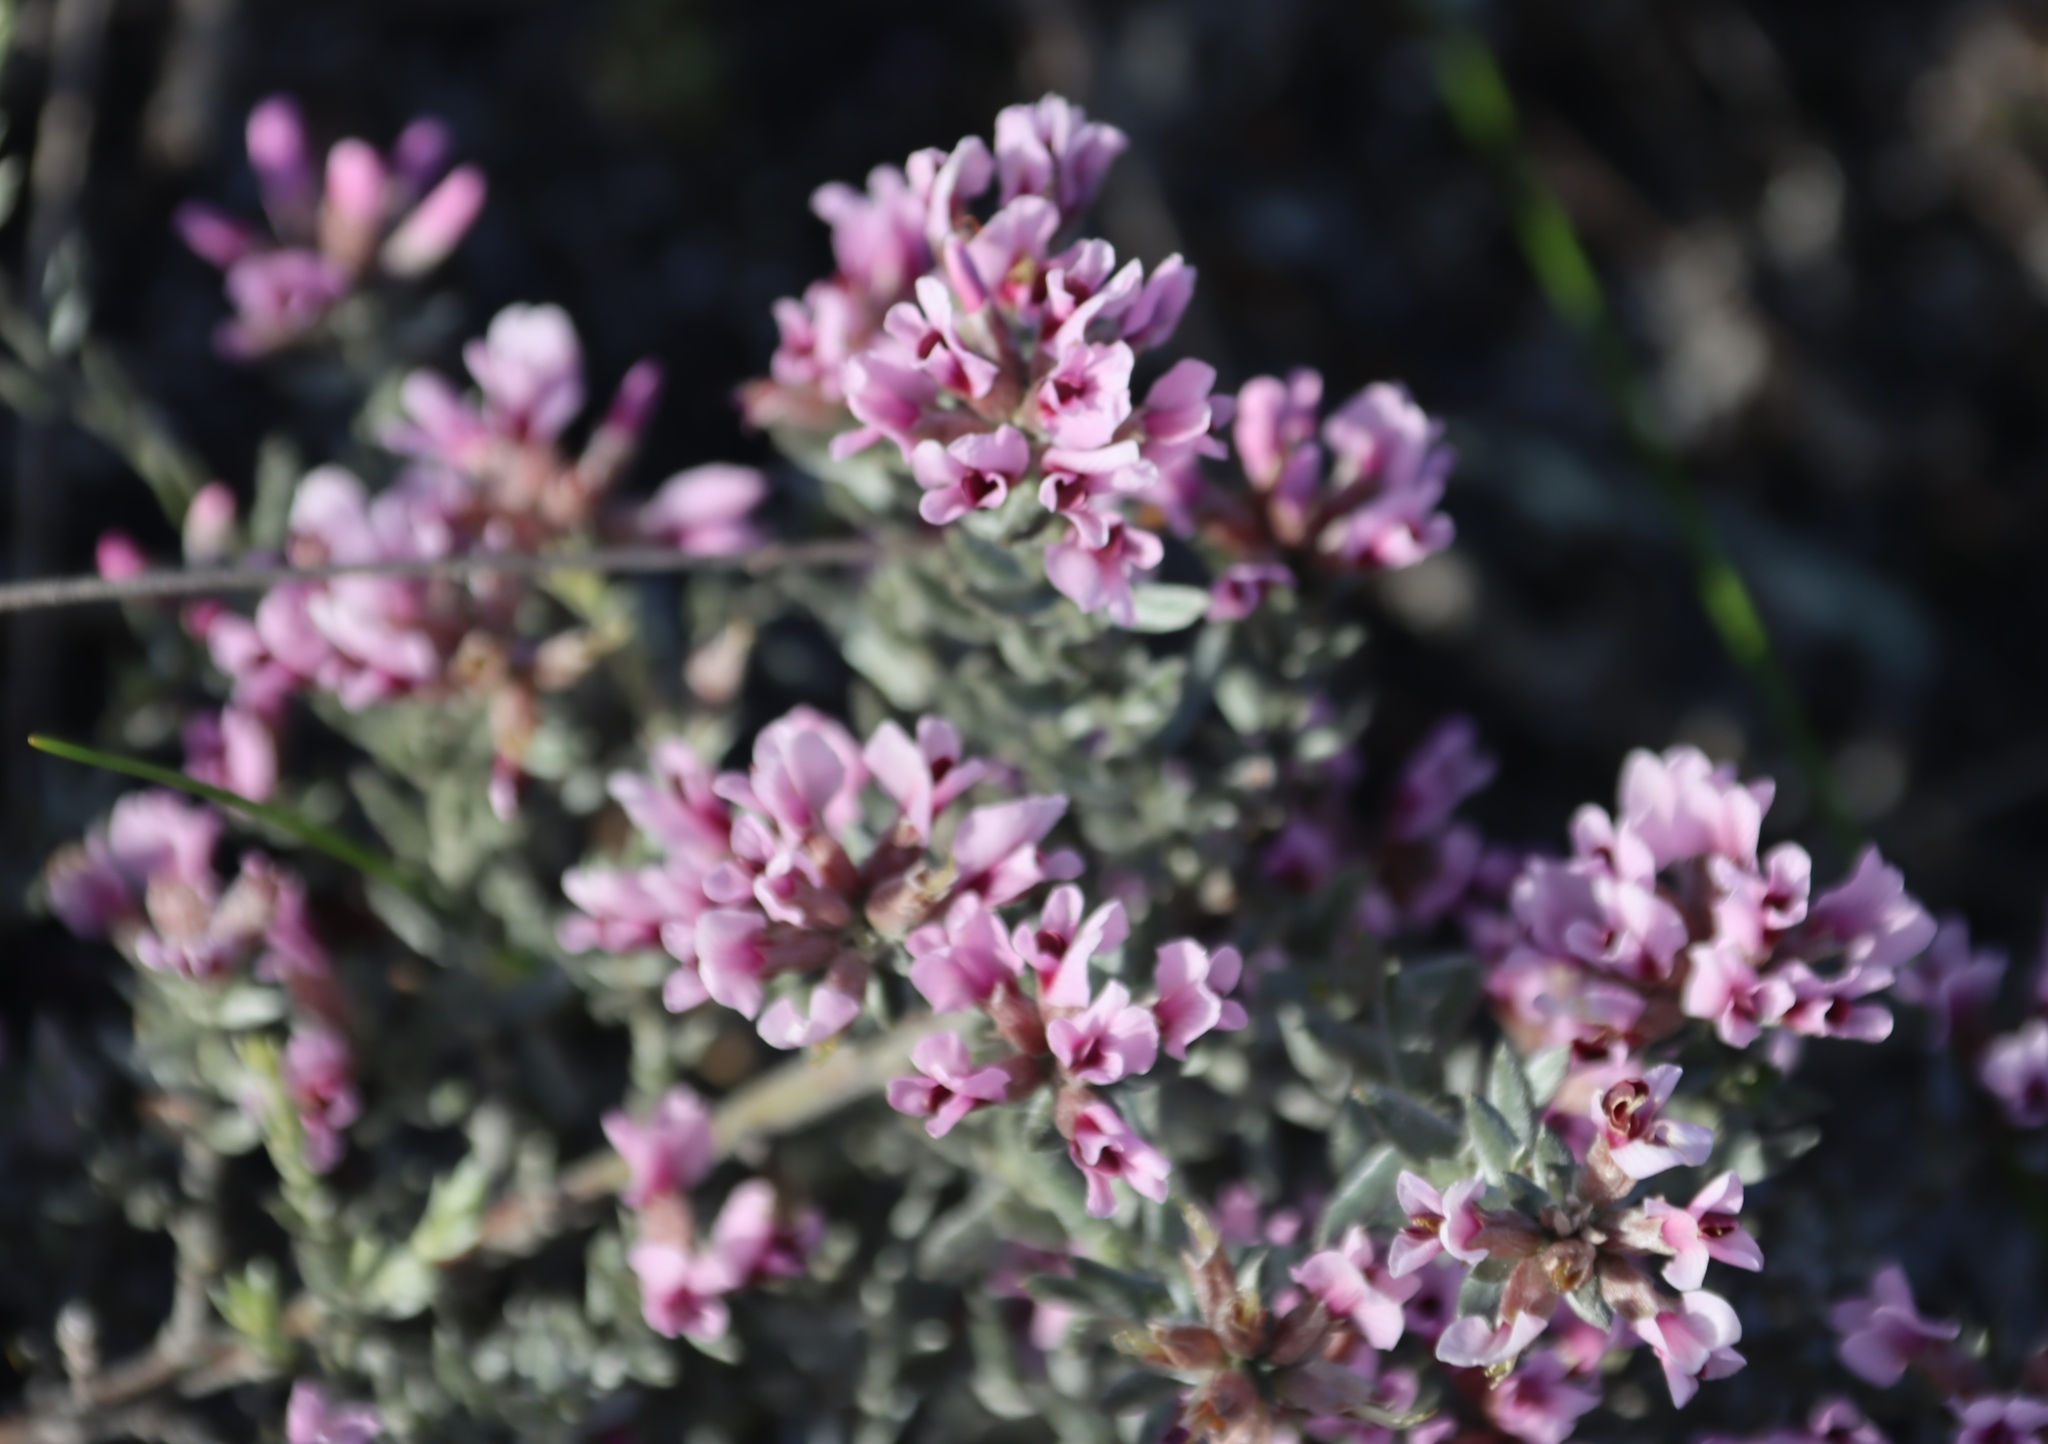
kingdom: Plantae
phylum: Tracheophyta
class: Magnoliopsida
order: Fabales
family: Fabaceae
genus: Amphithalea
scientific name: Amphithalea ericifolia
